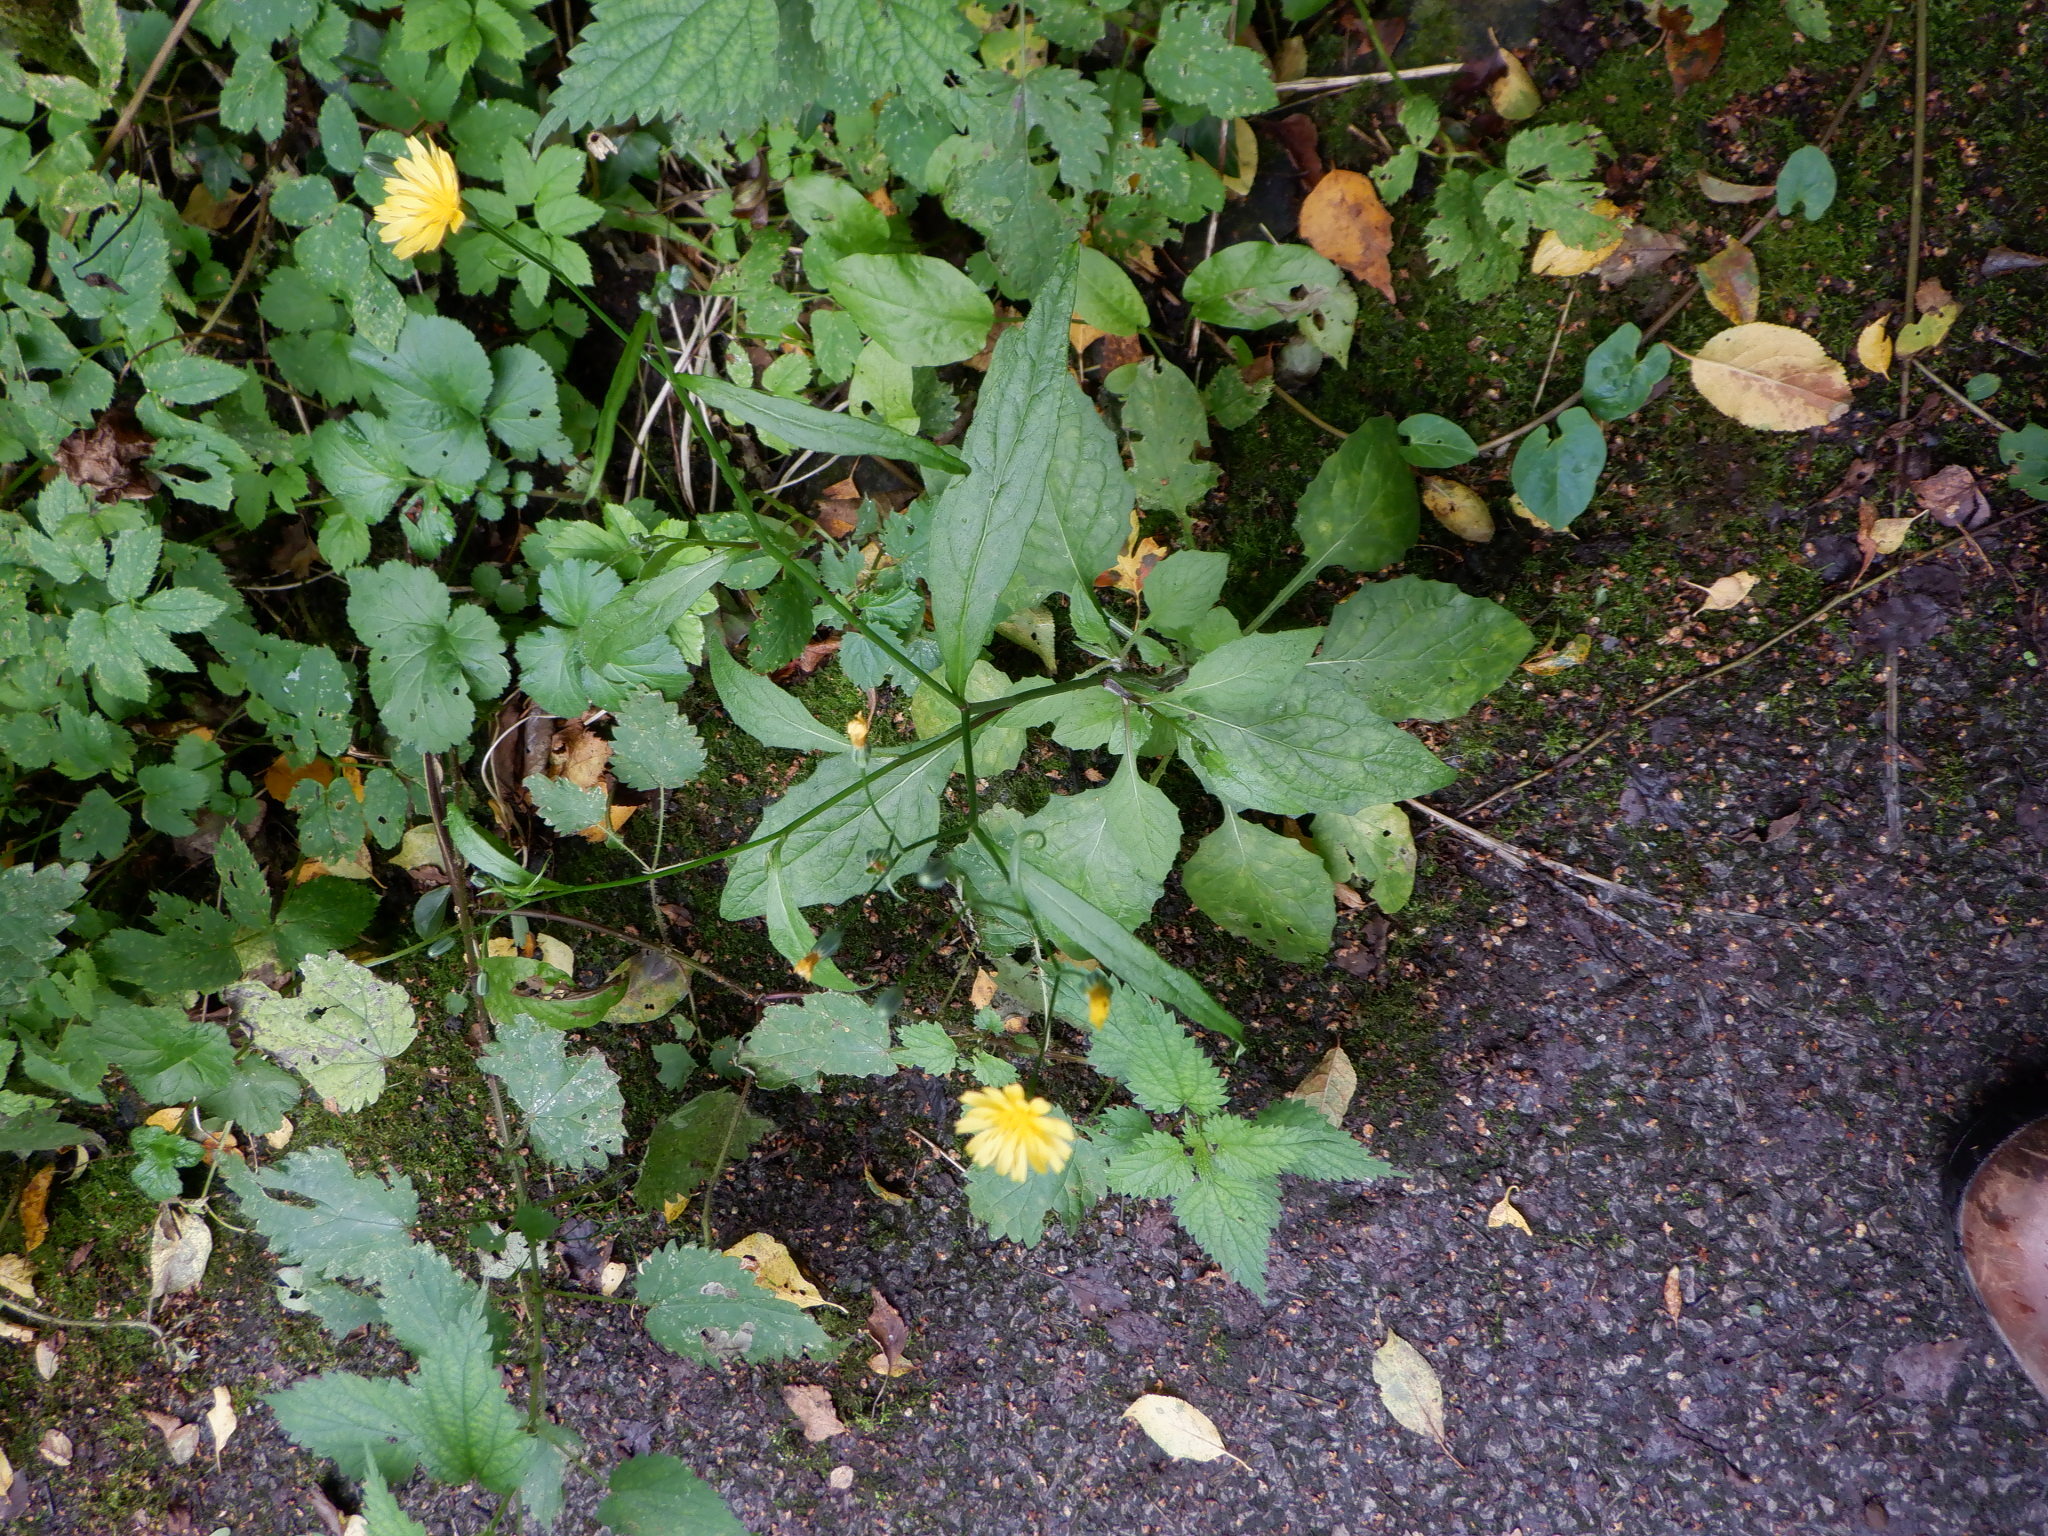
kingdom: Plantae
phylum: Tracheophyta
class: Magnoliopsida
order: Asterales
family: Asteraceae
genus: Lapsana
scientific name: Lapsana communis
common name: Nipplewort
